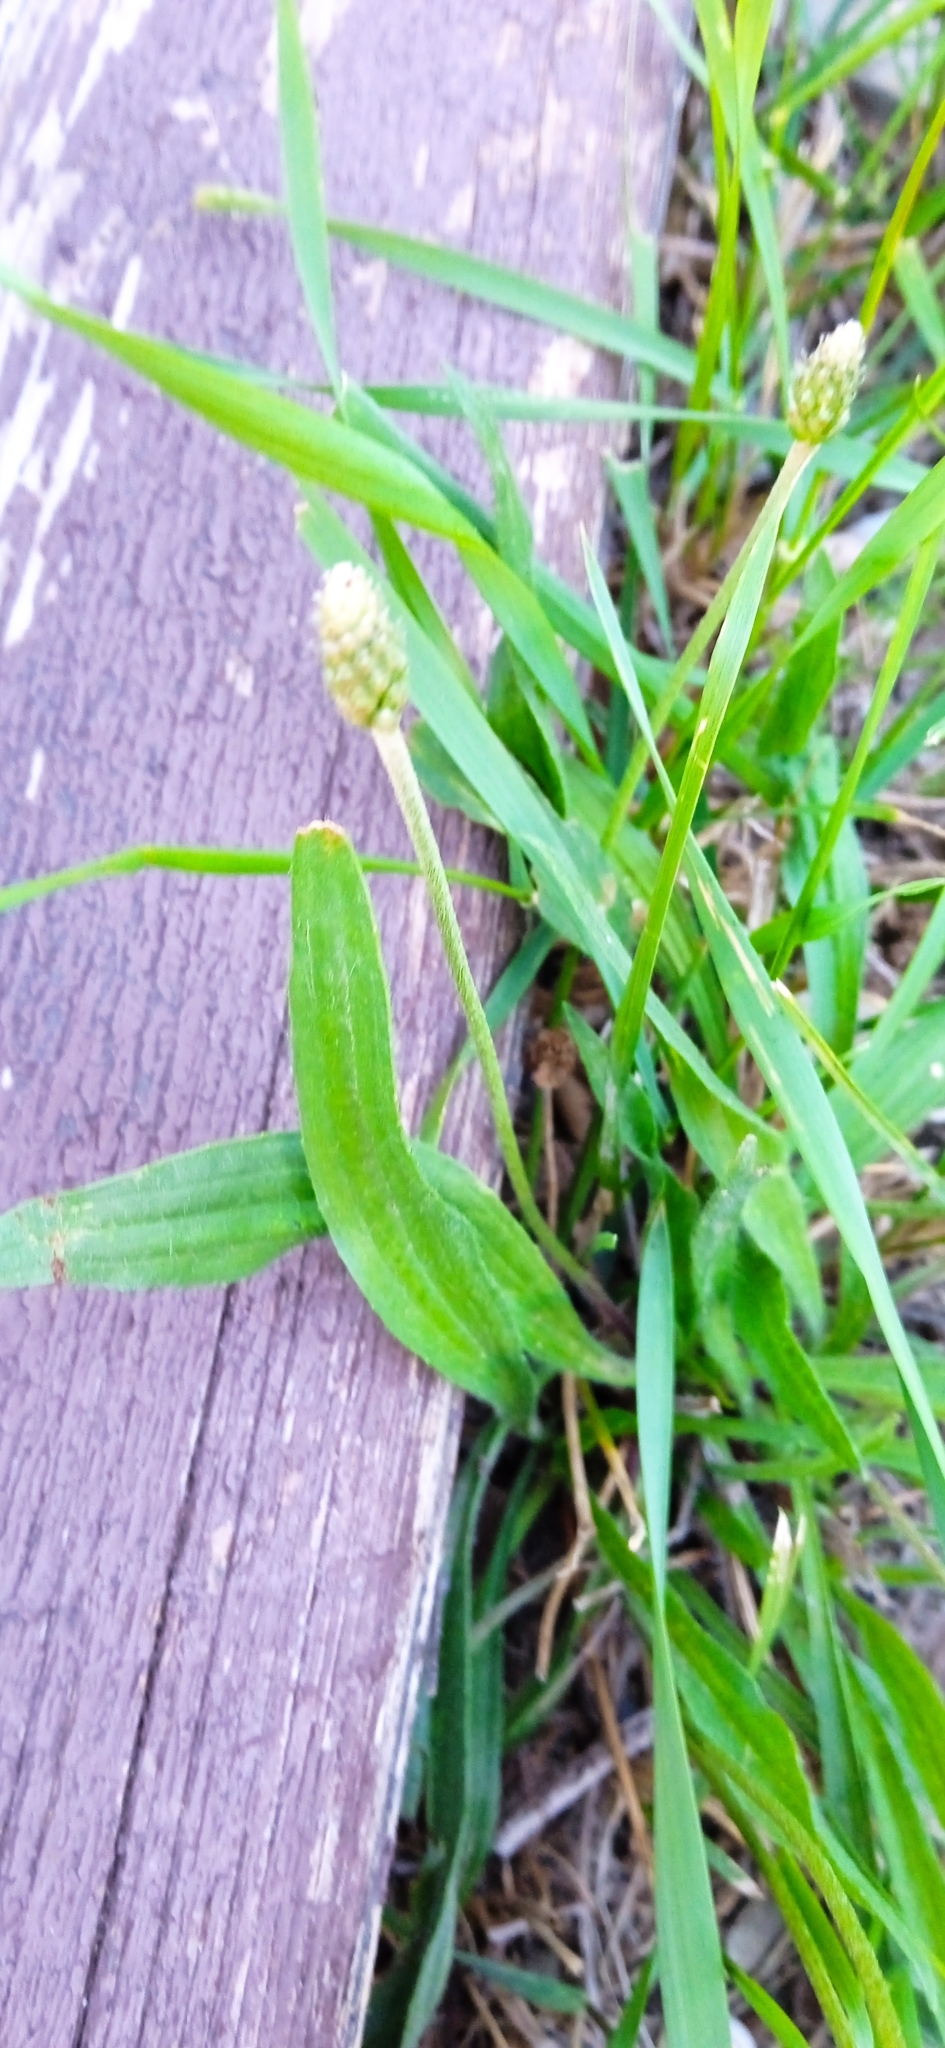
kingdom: Plantae
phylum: Tracheophyta
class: Magnoliopsida
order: Lamiales
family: Plantaginaceae
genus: Plantago
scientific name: Plantago lanceolata
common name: Ribwort plantain
